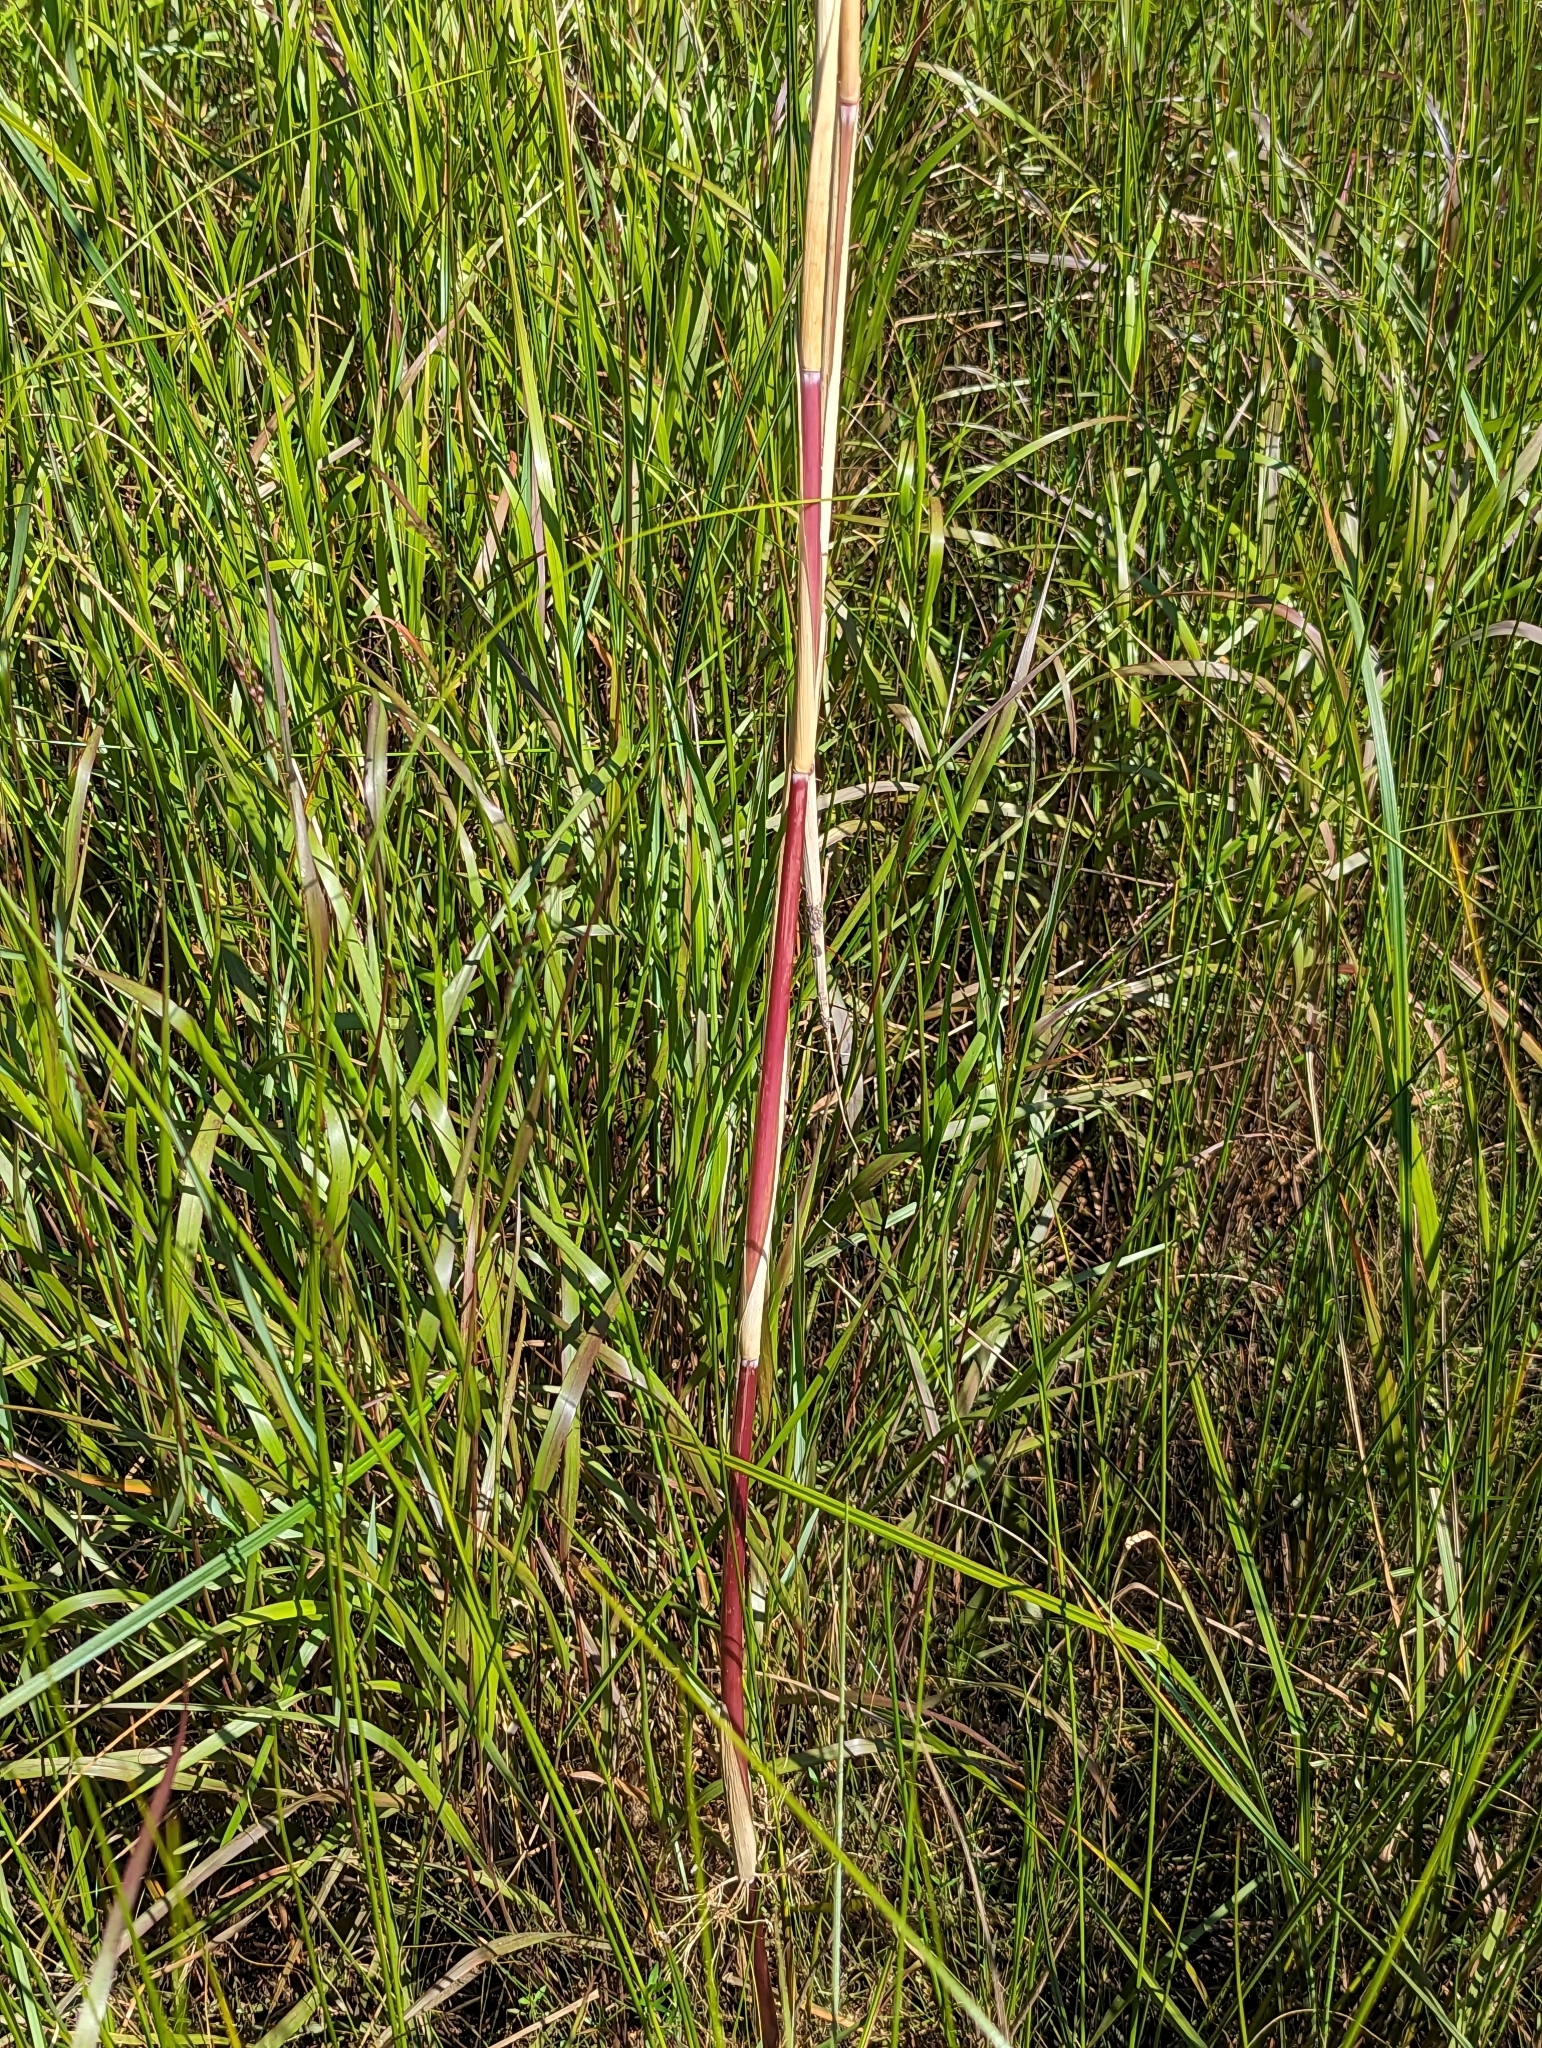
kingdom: Plantae
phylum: Tracheophyta
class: Liliopsida
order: Poales
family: Poaceae
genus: Phragmites
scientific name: Phragmites australis
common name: Common reed
